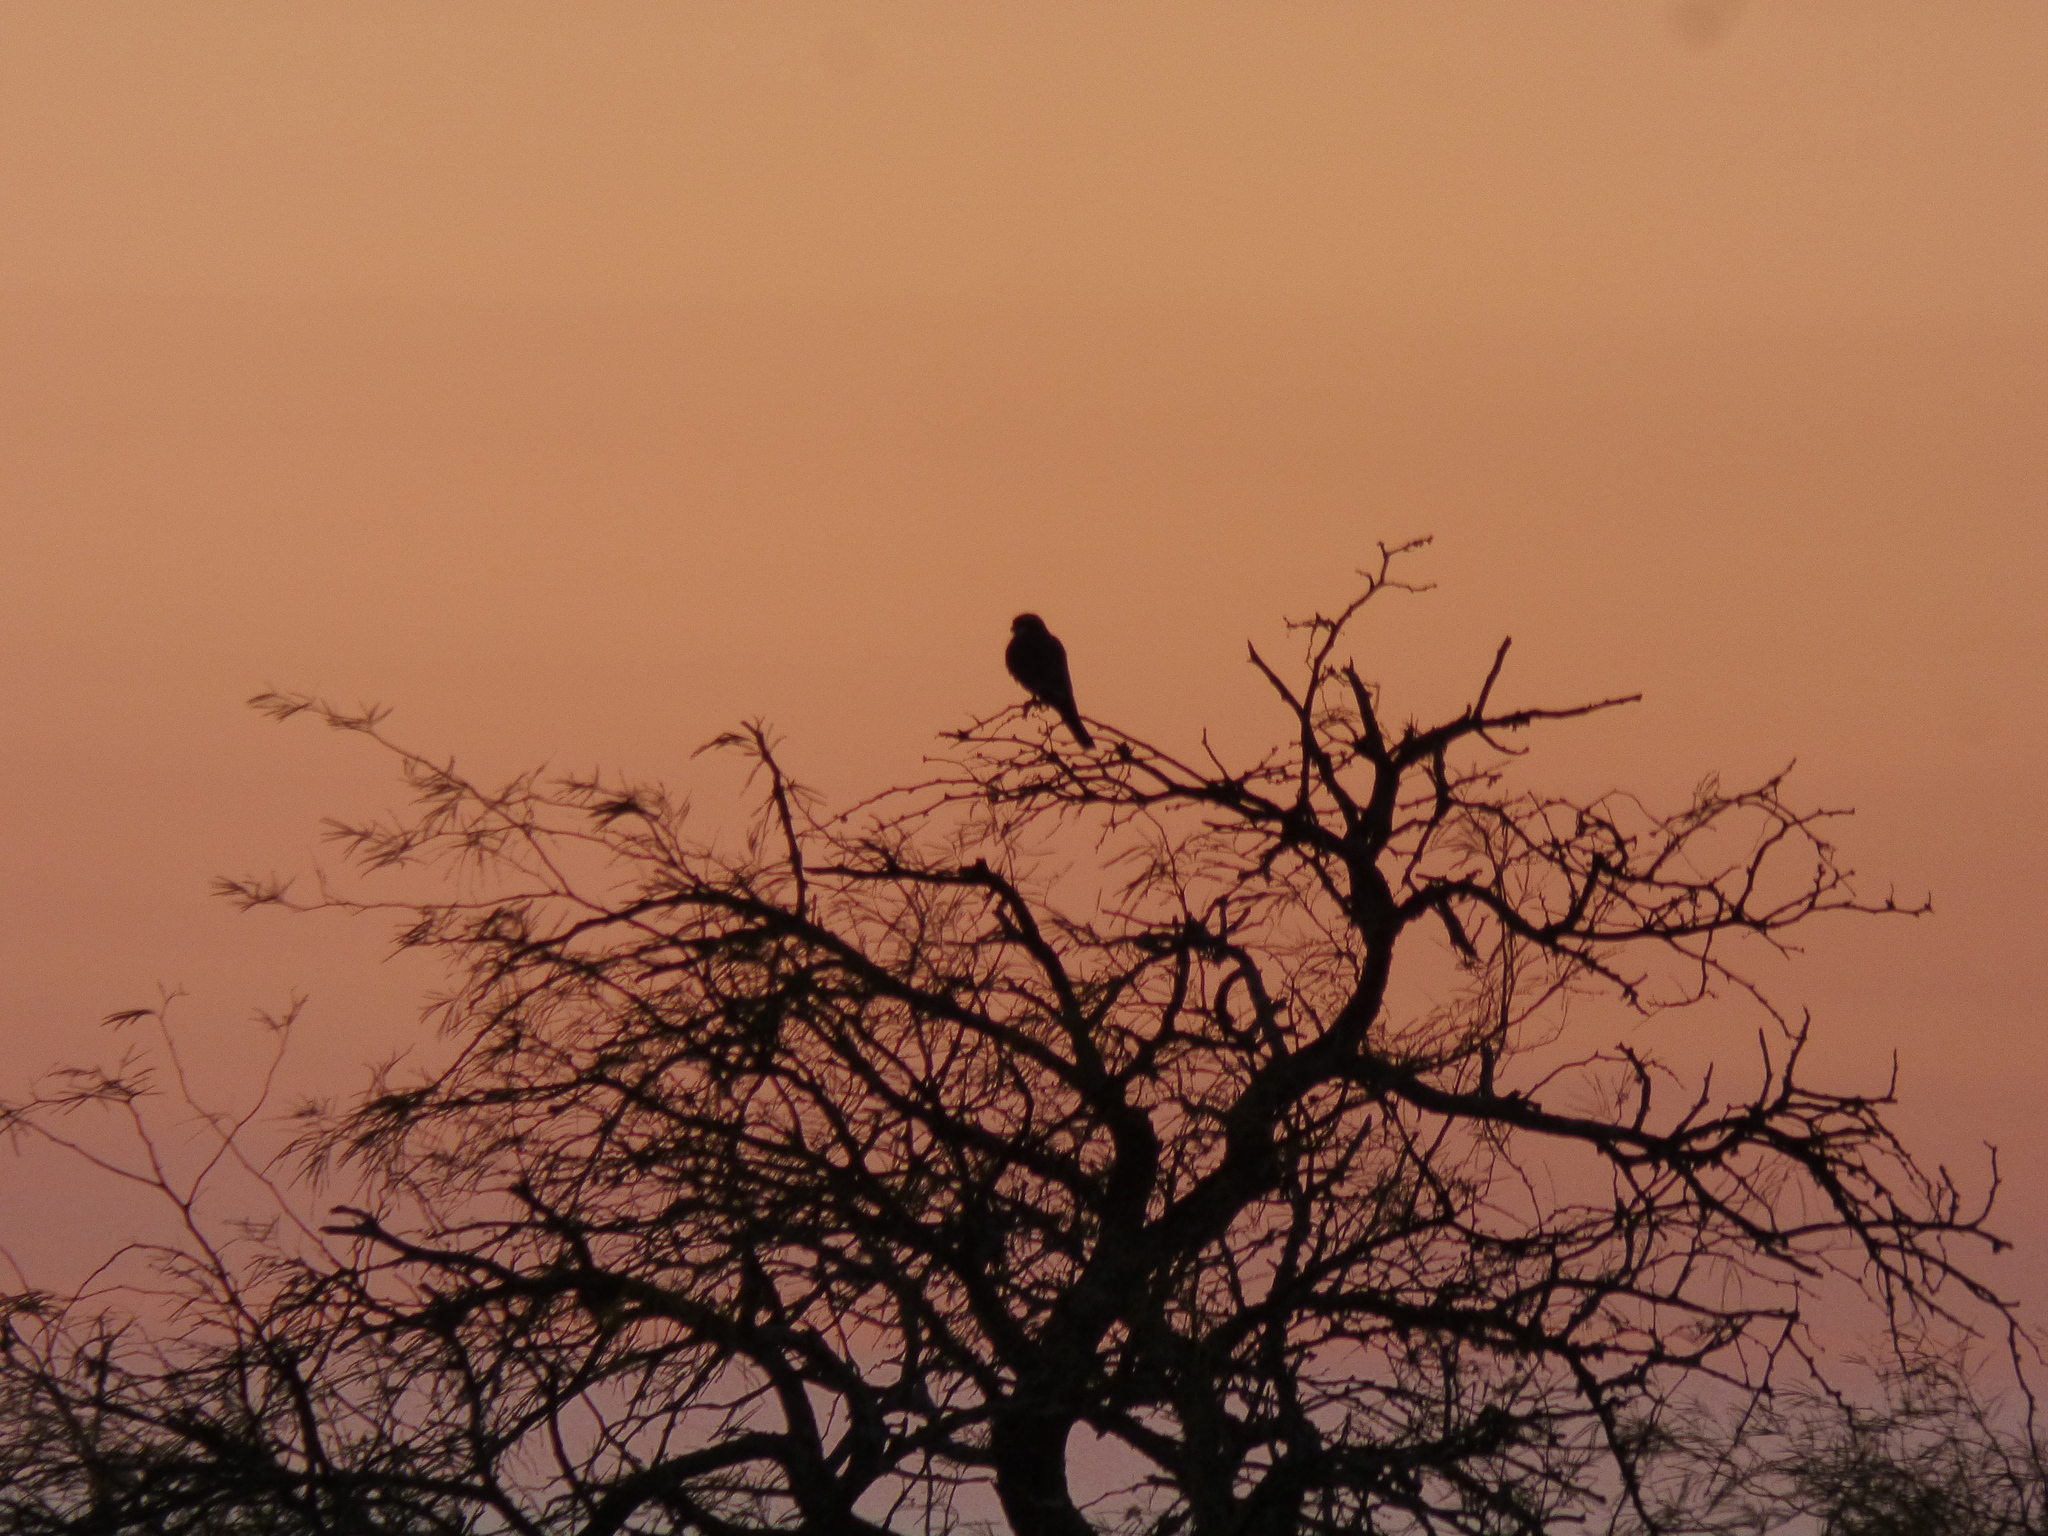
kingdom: Animalia
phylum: Chordata
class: Aves
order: Falconiformes
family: Falconidae
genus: Falco
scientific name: Falco femoralis
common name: Aplomado falcon
